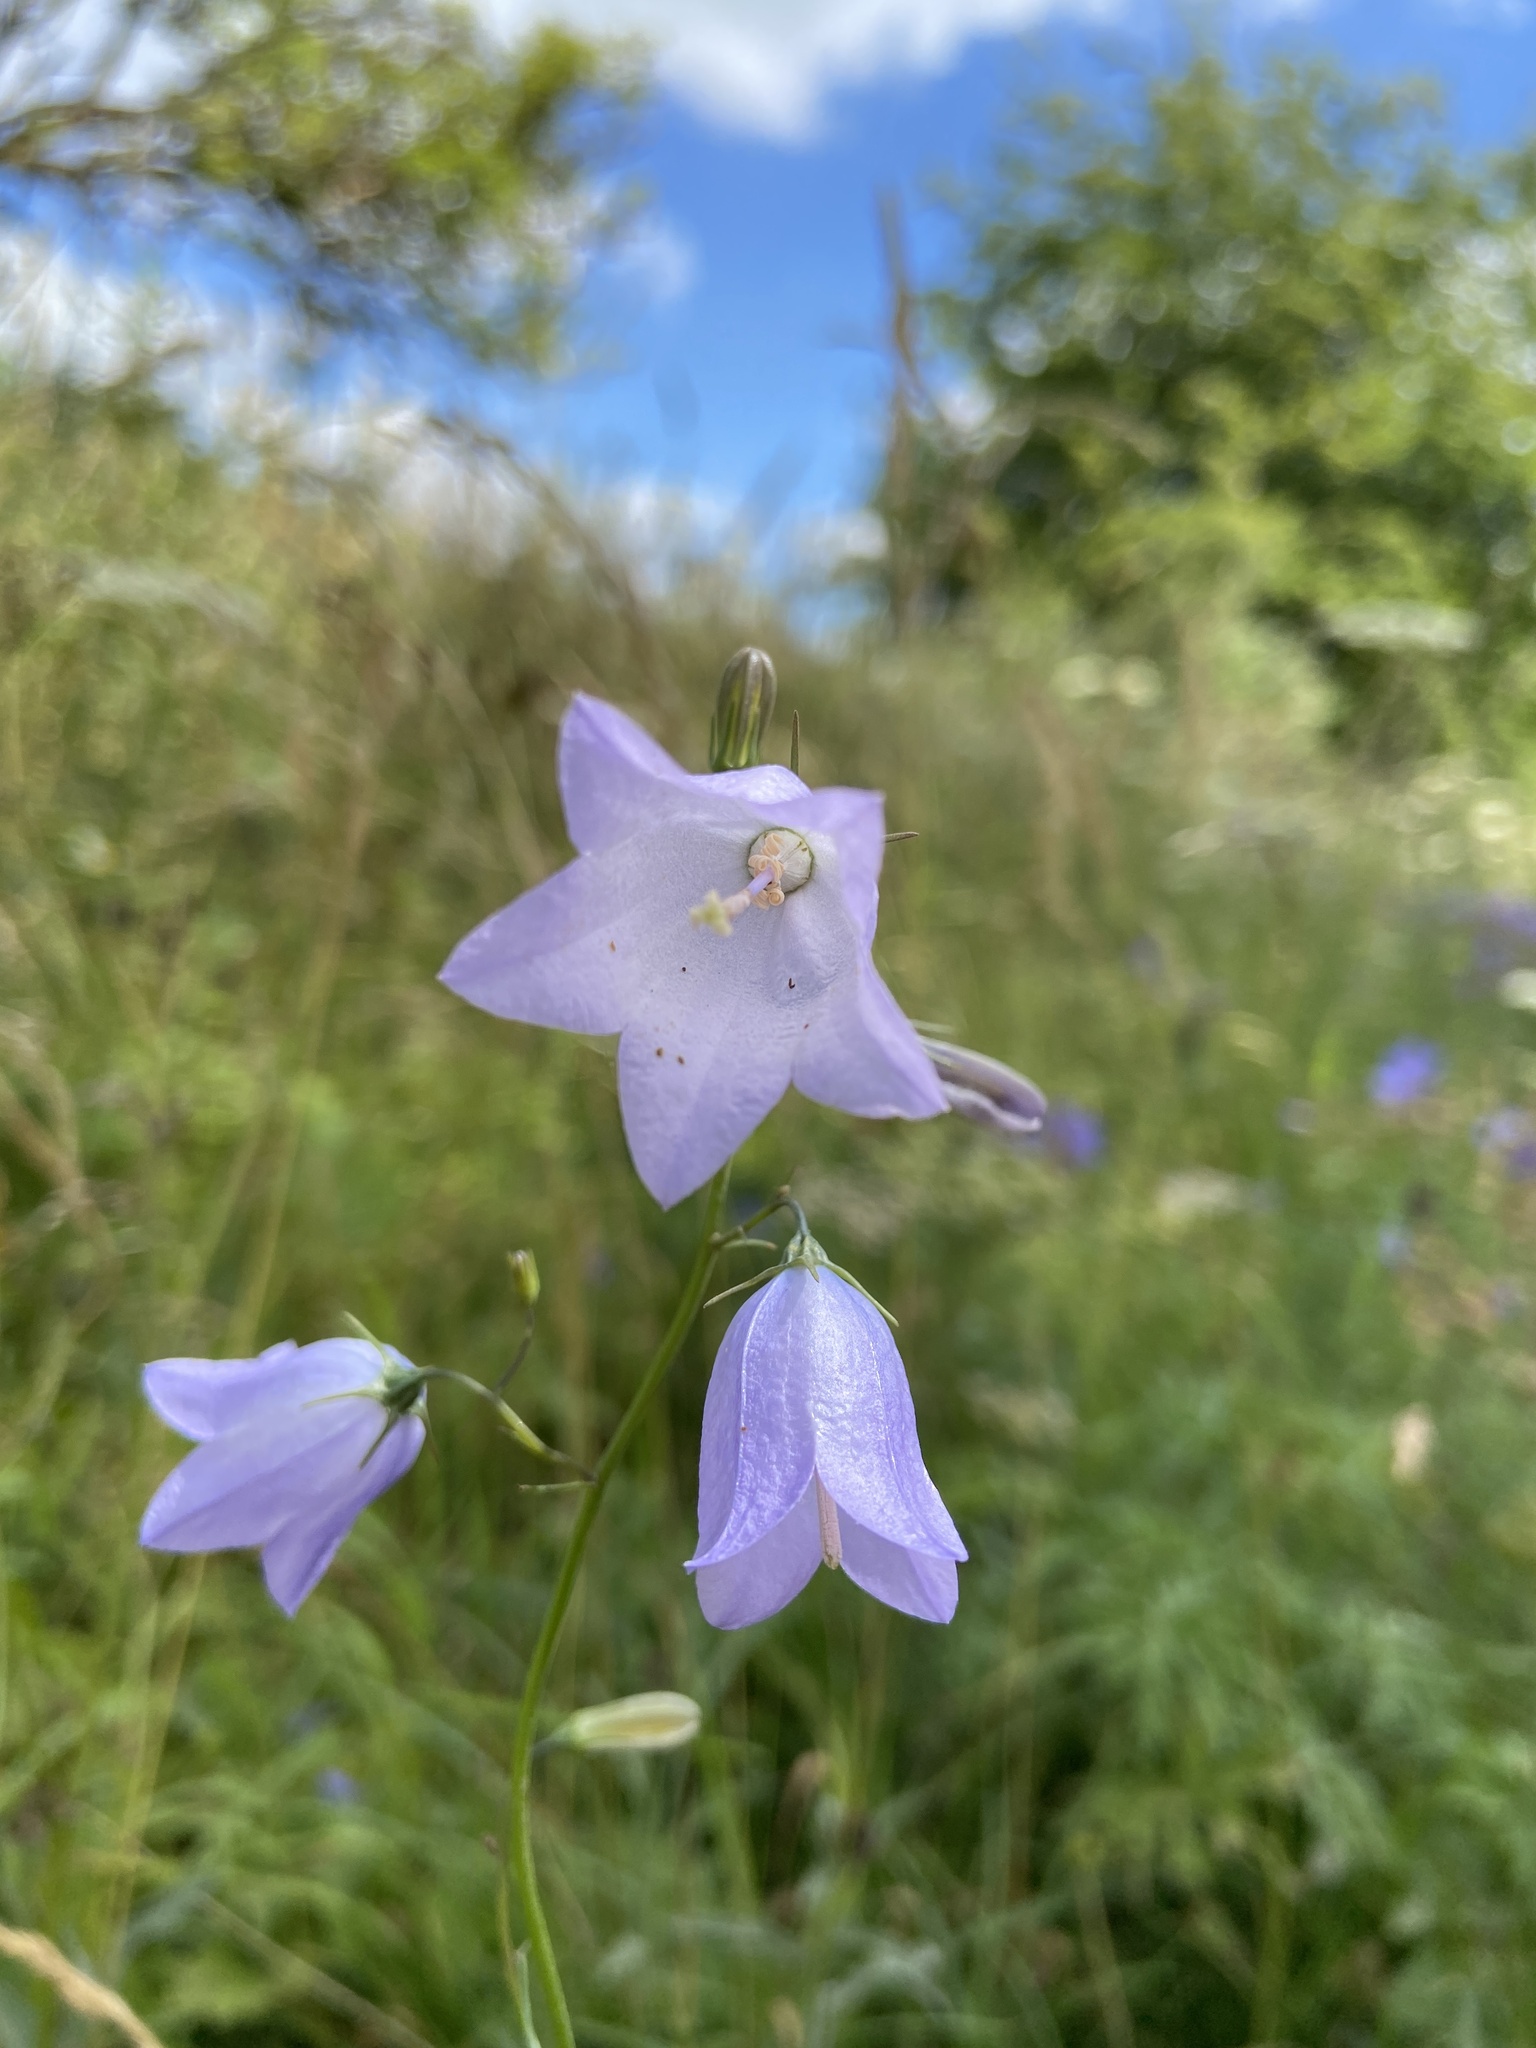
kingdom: Plantae
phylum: Tracheophyta
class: Magnoliopsida
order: Asterales
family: Campanulaceae
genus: Campanula
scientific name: Campanula rotundifolia
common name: Harebell
